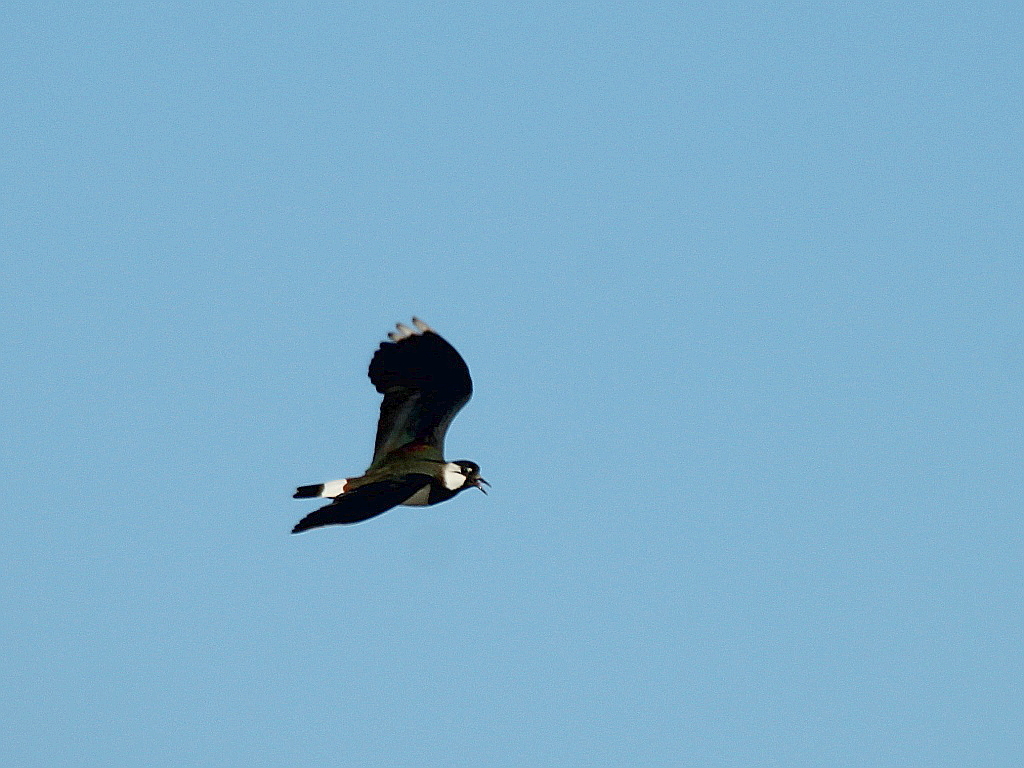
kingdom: Animalia
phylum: Chordata
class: Aves
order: Charadriiformes
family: Charadriidae
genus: Vanellus
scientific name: Vanellus vanellus
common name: Northern lapwing
